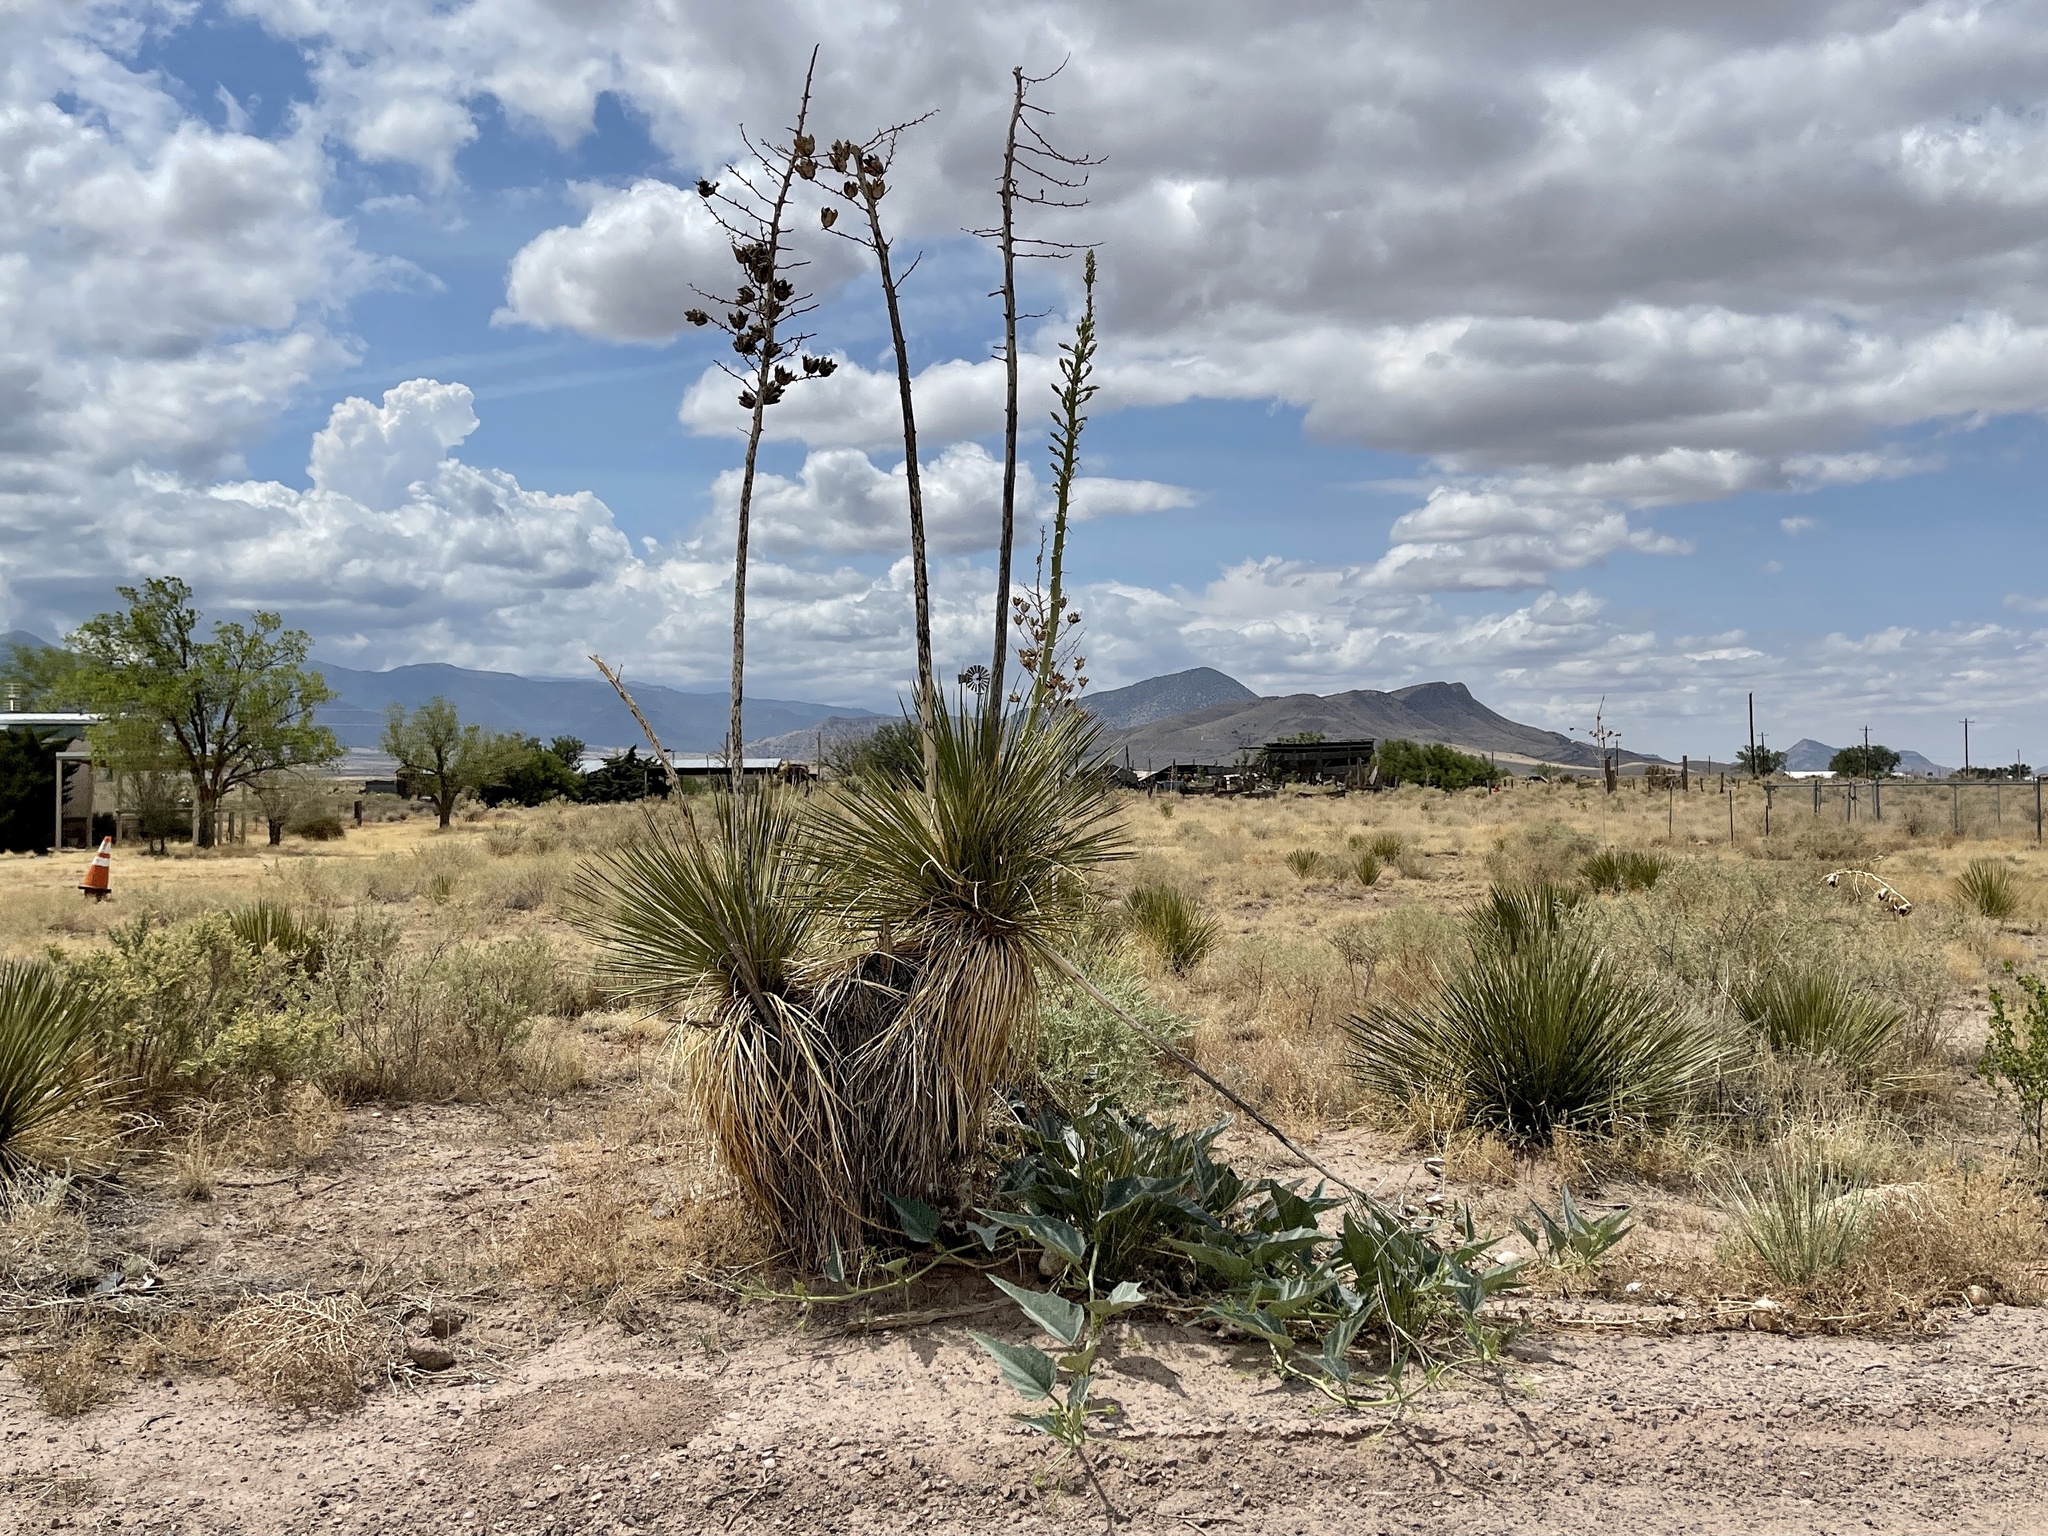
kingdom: Plantae
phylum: Tracheophyta
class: Liliopsida
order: Asparagales
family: Asparagaceae
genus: Yucca
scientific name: Yucca elata
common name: Palmella
